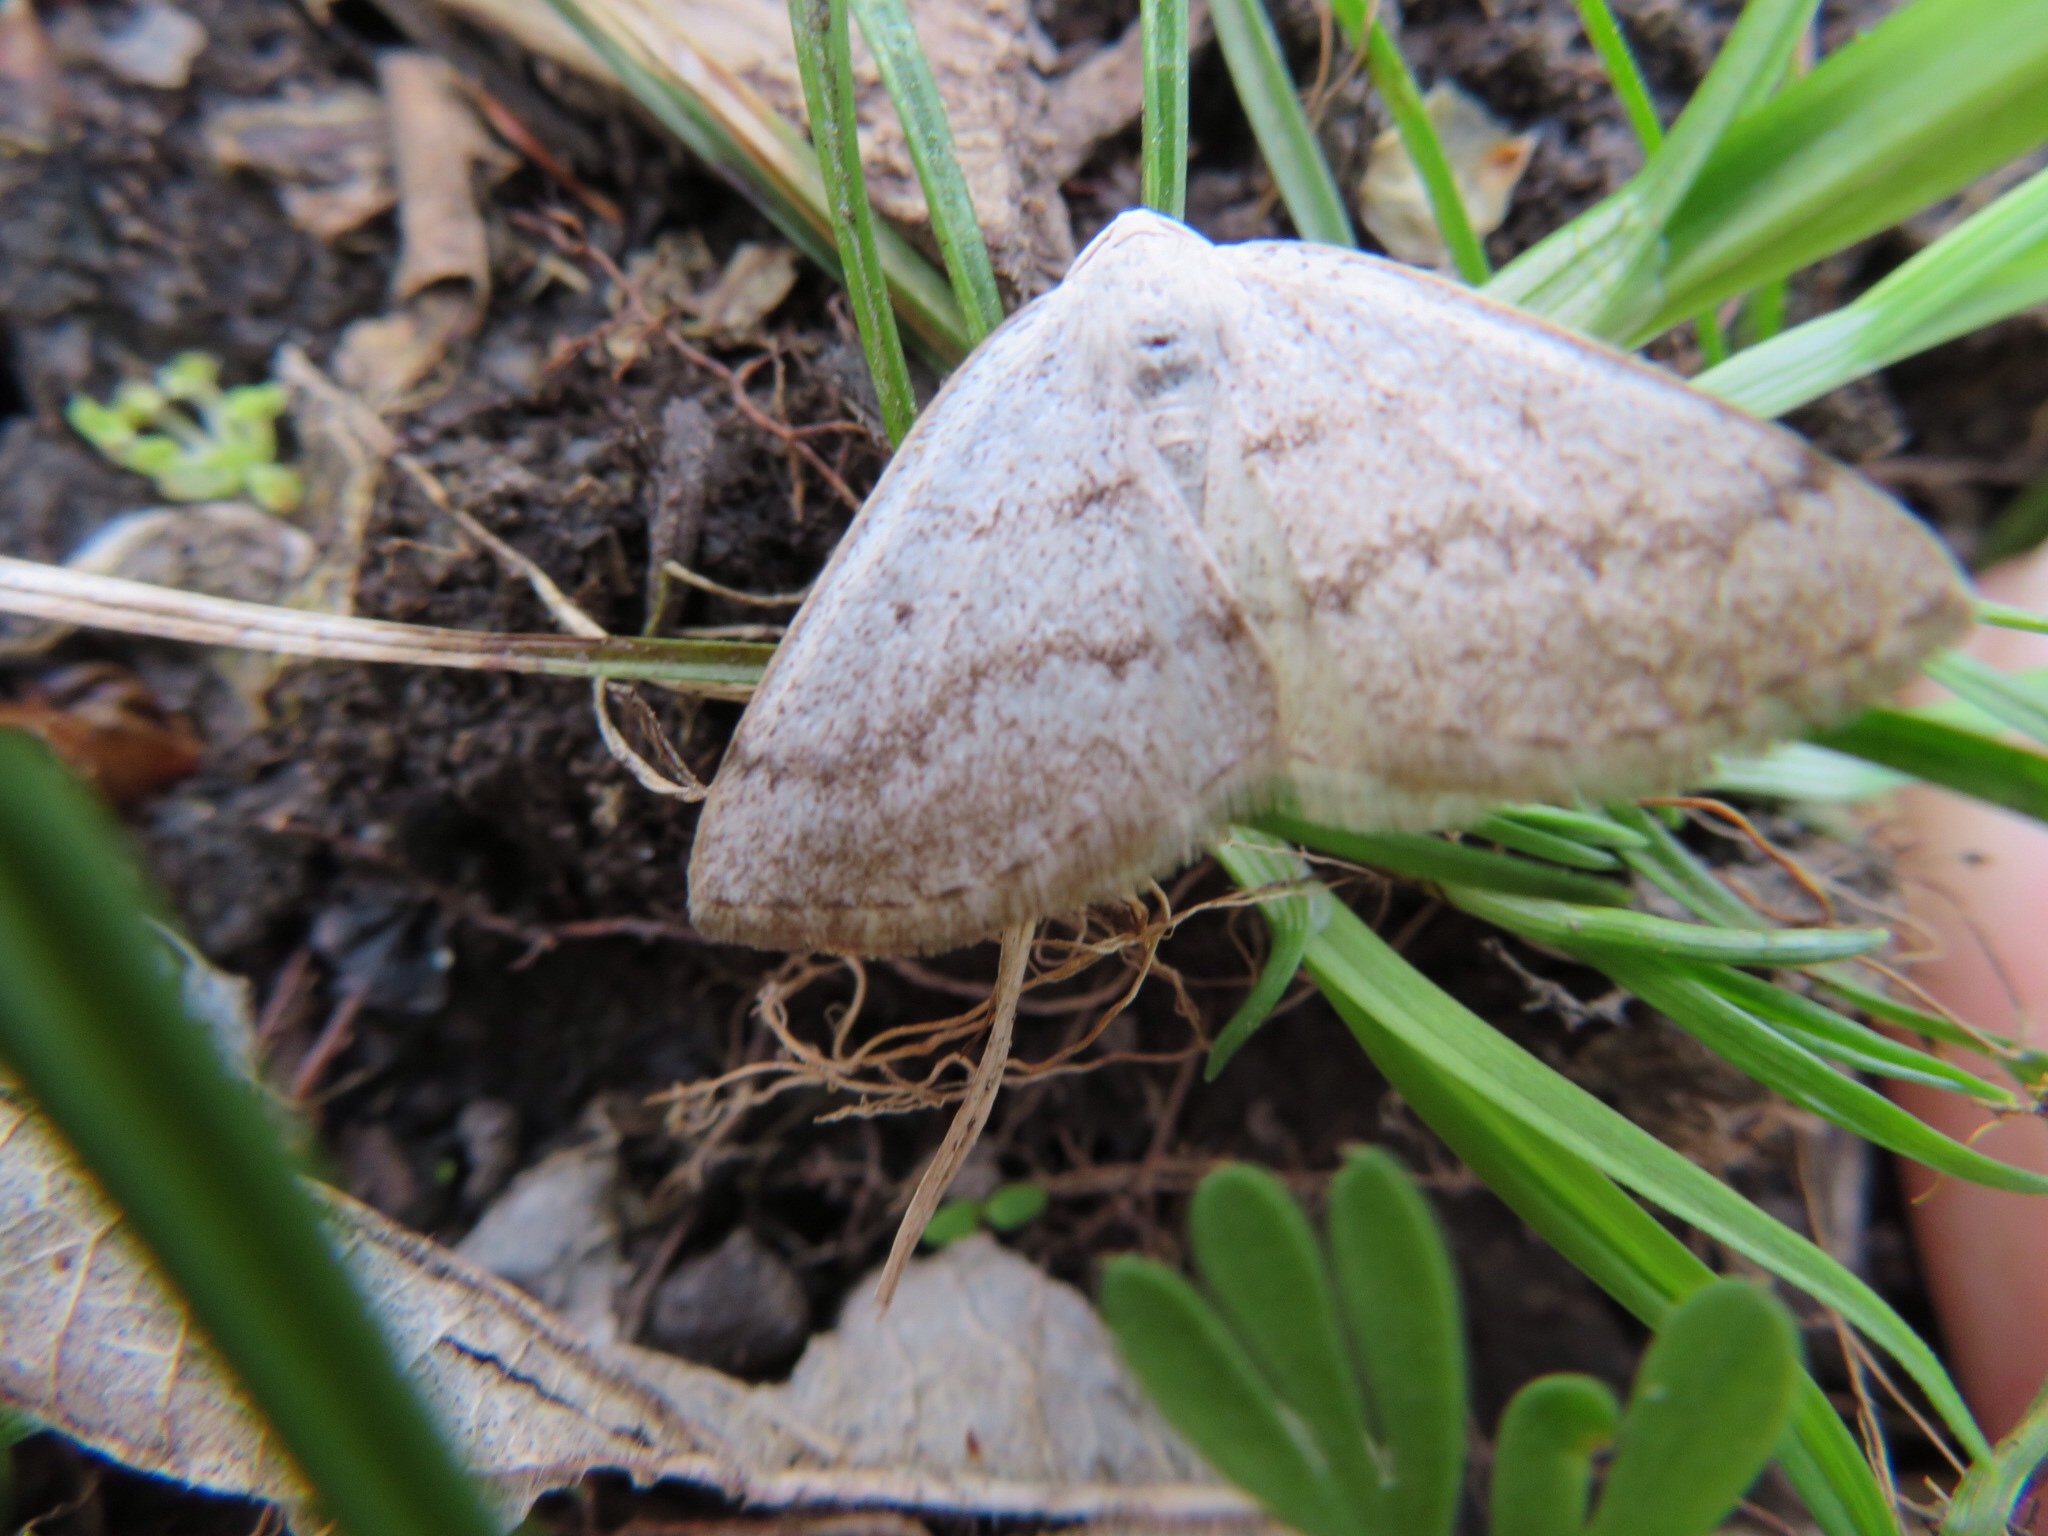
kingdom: Animalia
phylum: Arthropoda
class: Insecta
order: Lepidoptera
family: Geometridae
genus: Lomographa
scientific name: Lomographa glomeraria
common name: Gray spring moth
